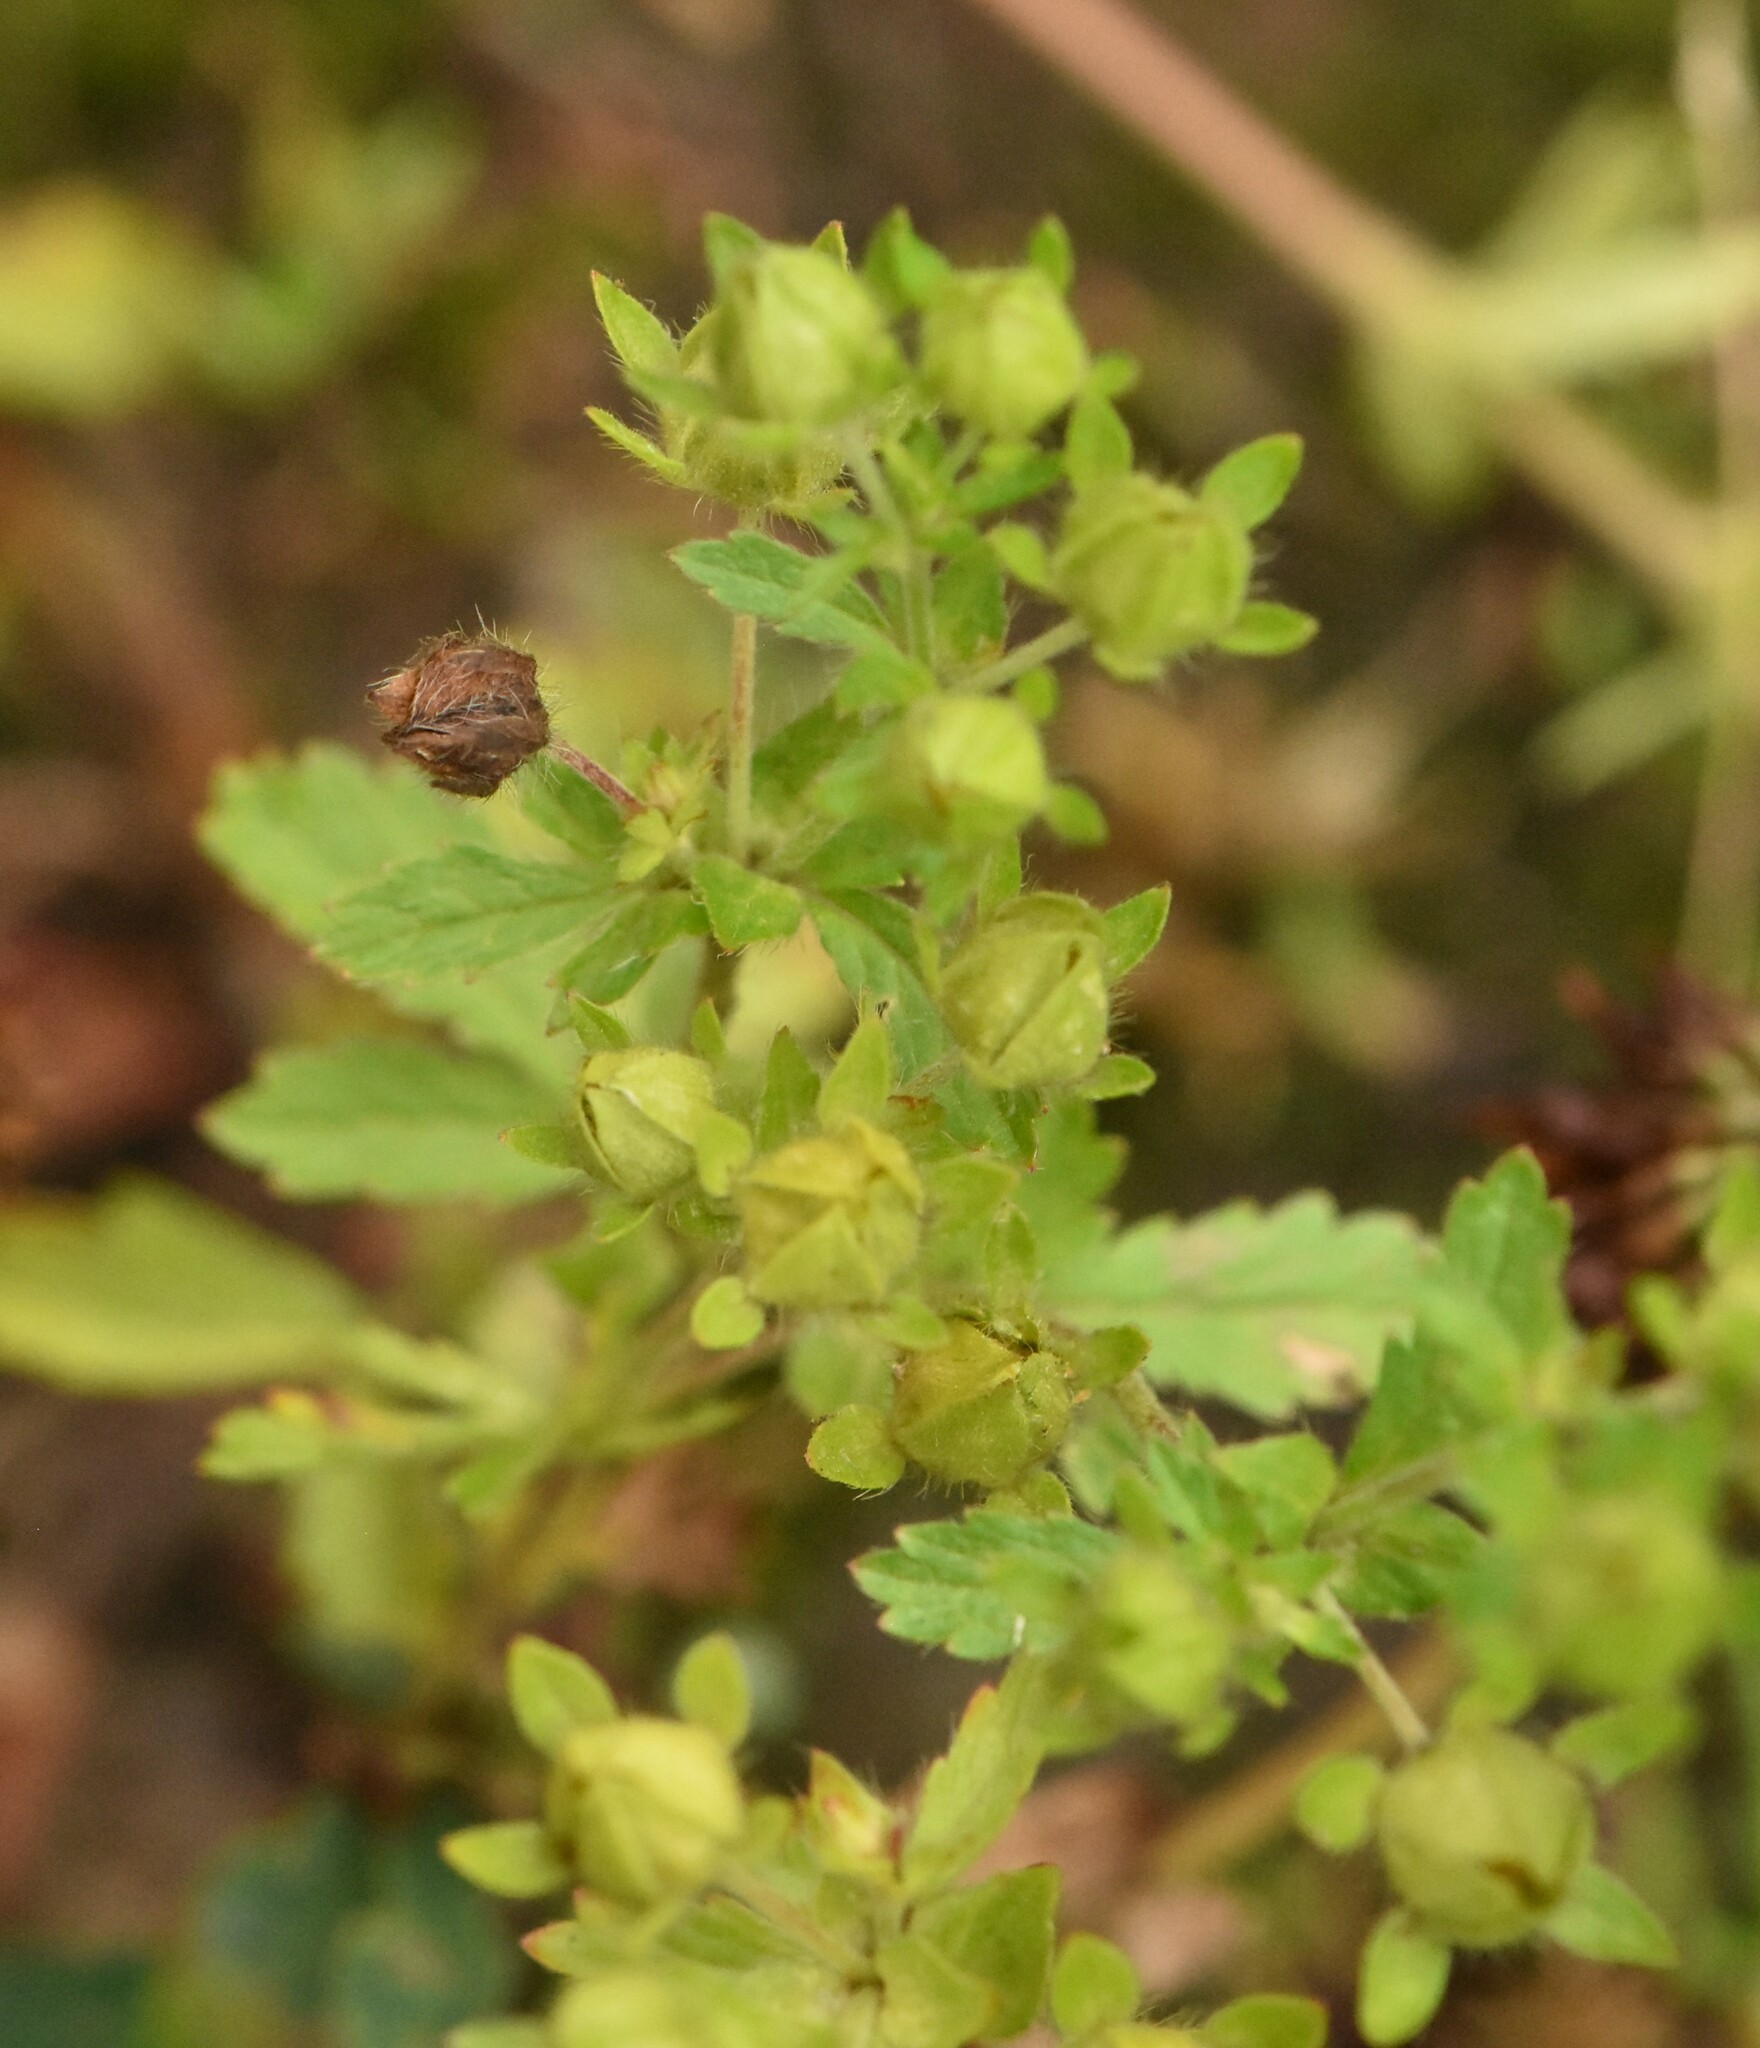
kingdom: Plantae
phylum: Tracheophyta
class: Magnoliopsida
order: Rosales
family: Rosaceae
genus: Potentilla
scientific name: Potentilla norvegica
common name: Ternate-leaved cinquefoil
